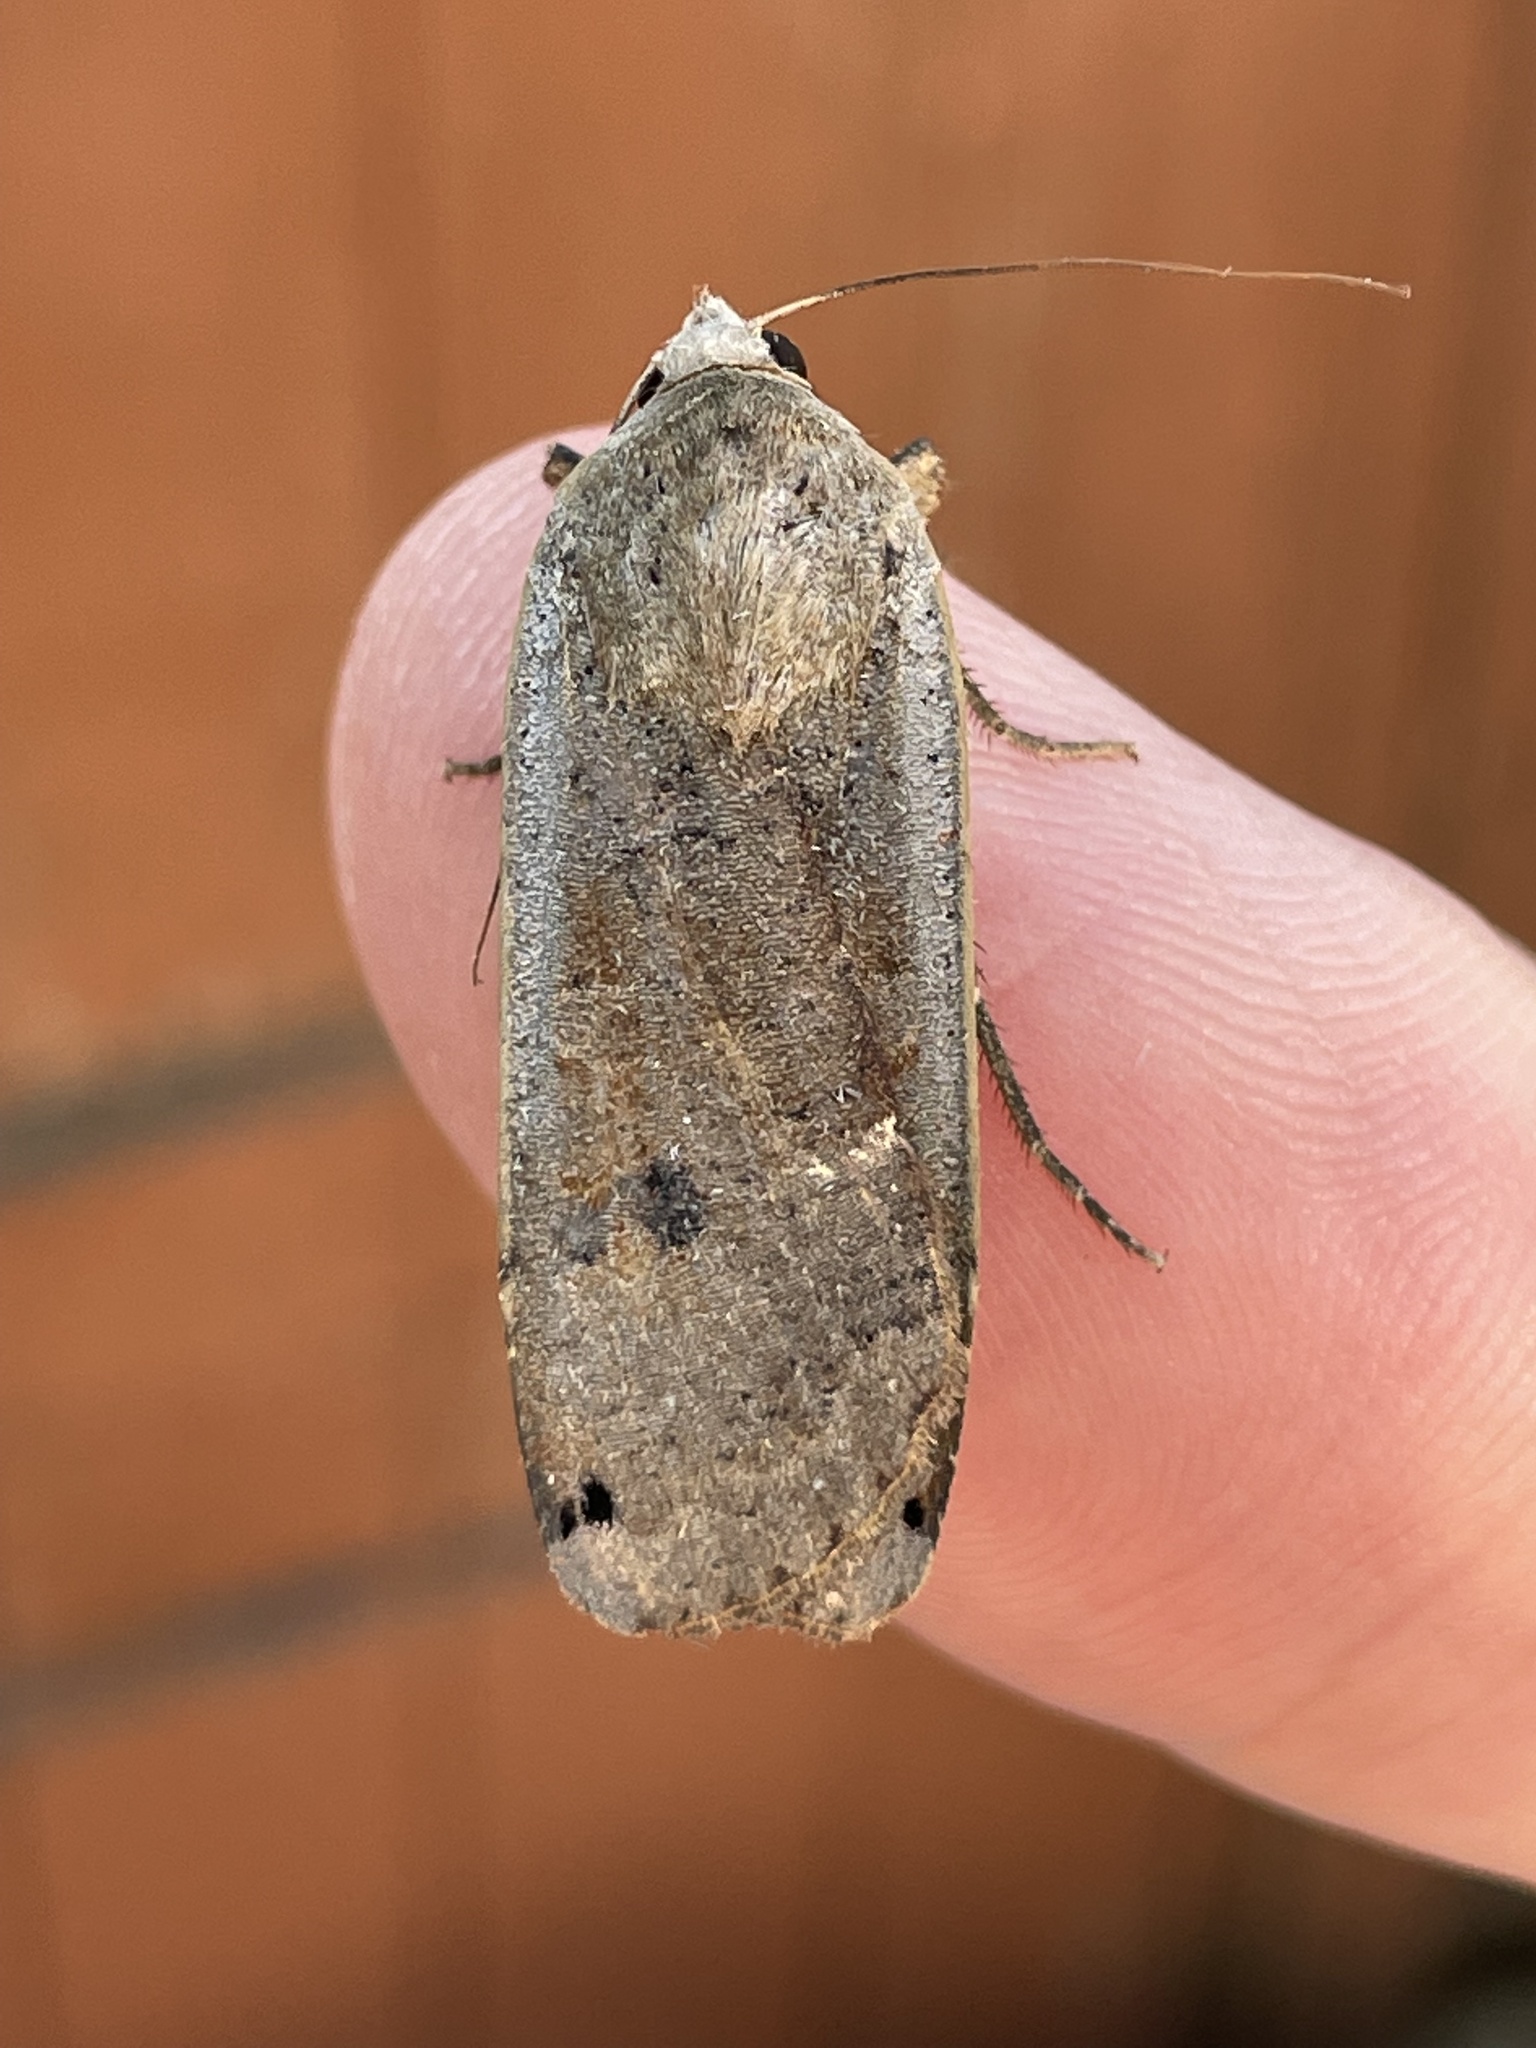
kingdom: Animalia
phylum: Arthropoda
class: Insecta
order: Lepidoptera
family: Noctuidae
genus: Noctua
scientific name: Noctua pronuba
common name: Large yellow underwing
